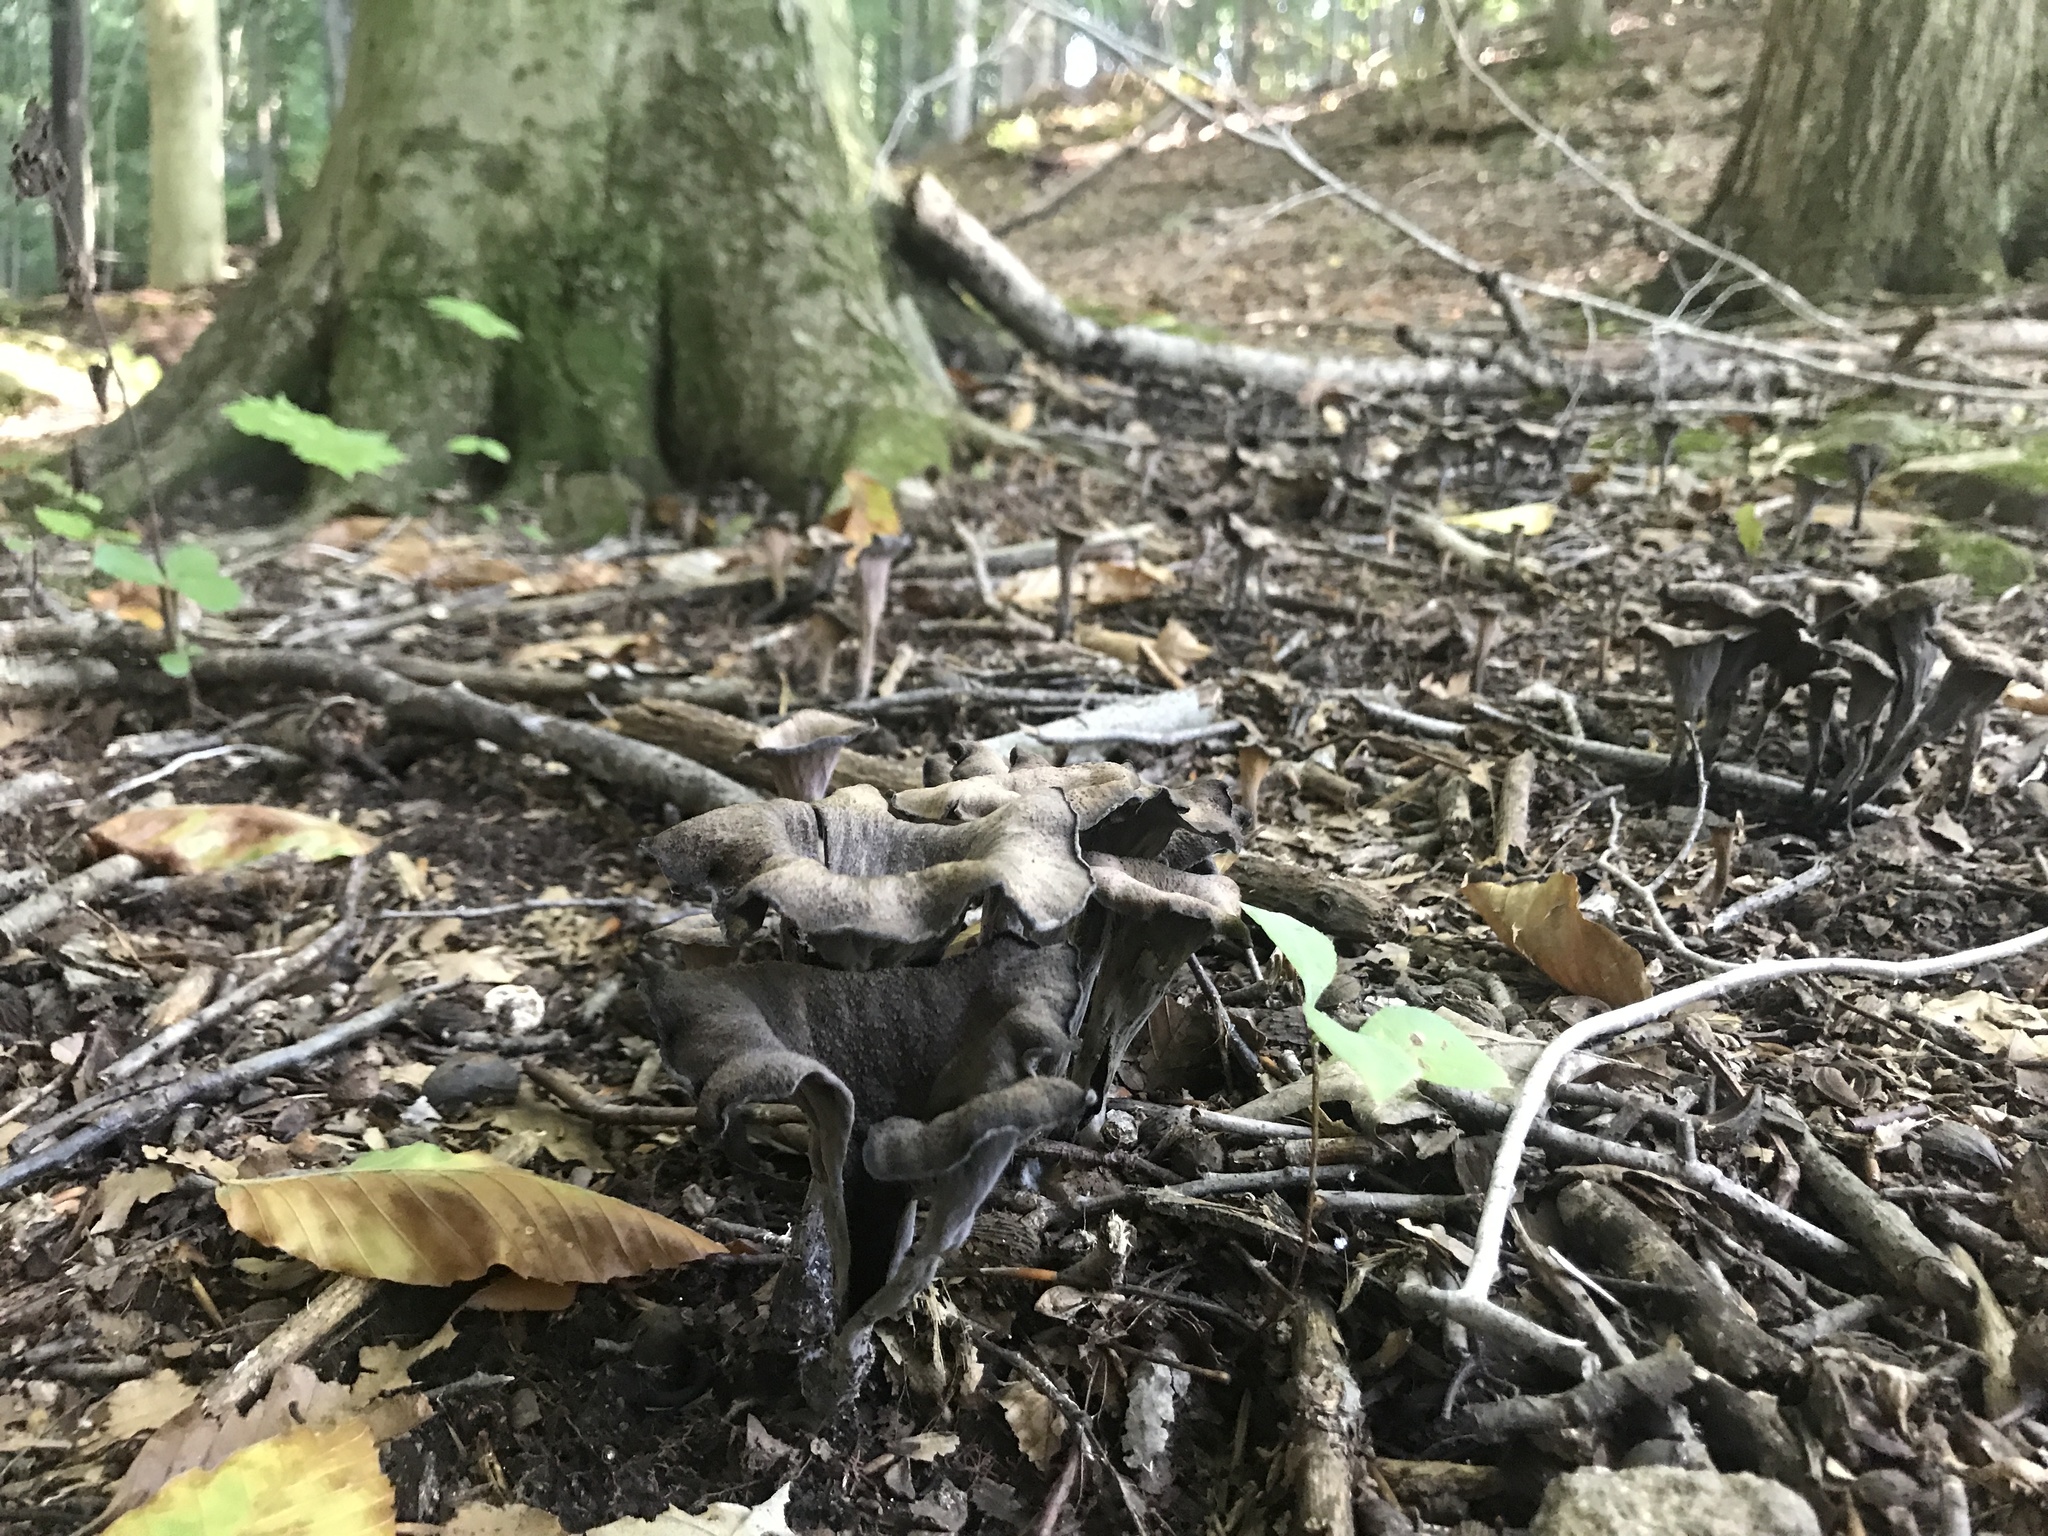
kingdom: Fungi
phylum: Basidiomycota
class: Agaricomycetes
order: Cantharellales
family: Hydnaceae
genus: Craterellus
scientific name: Craterellus cornucopioides
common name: Horn of plenty
